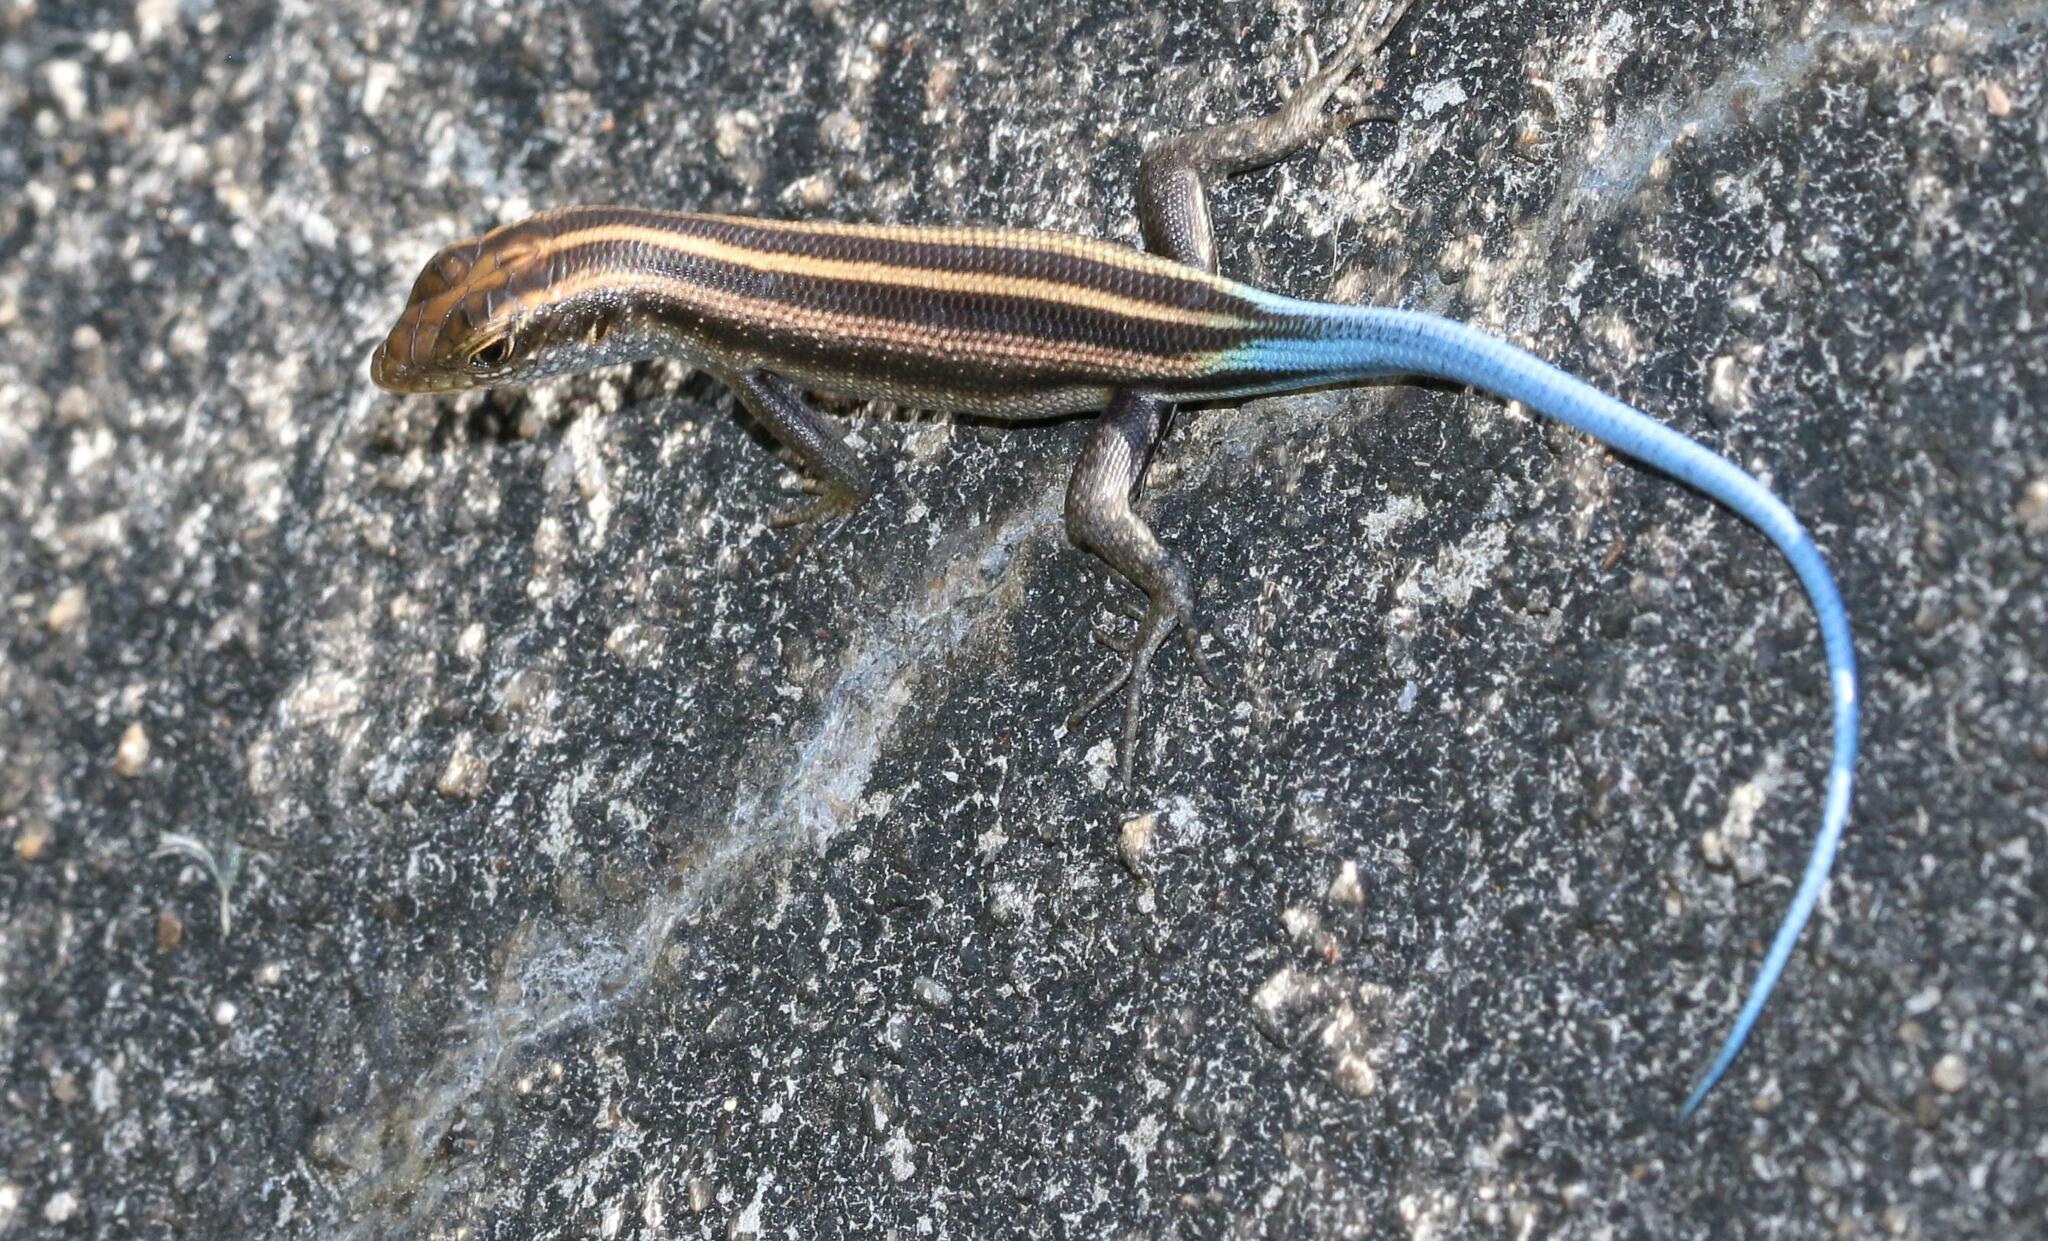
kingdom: Animalia
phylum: Chordata
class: Squamata
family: Scincidae
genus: Trachylepis
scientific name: Trachylepis margaritifera
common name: Rainbow skink
